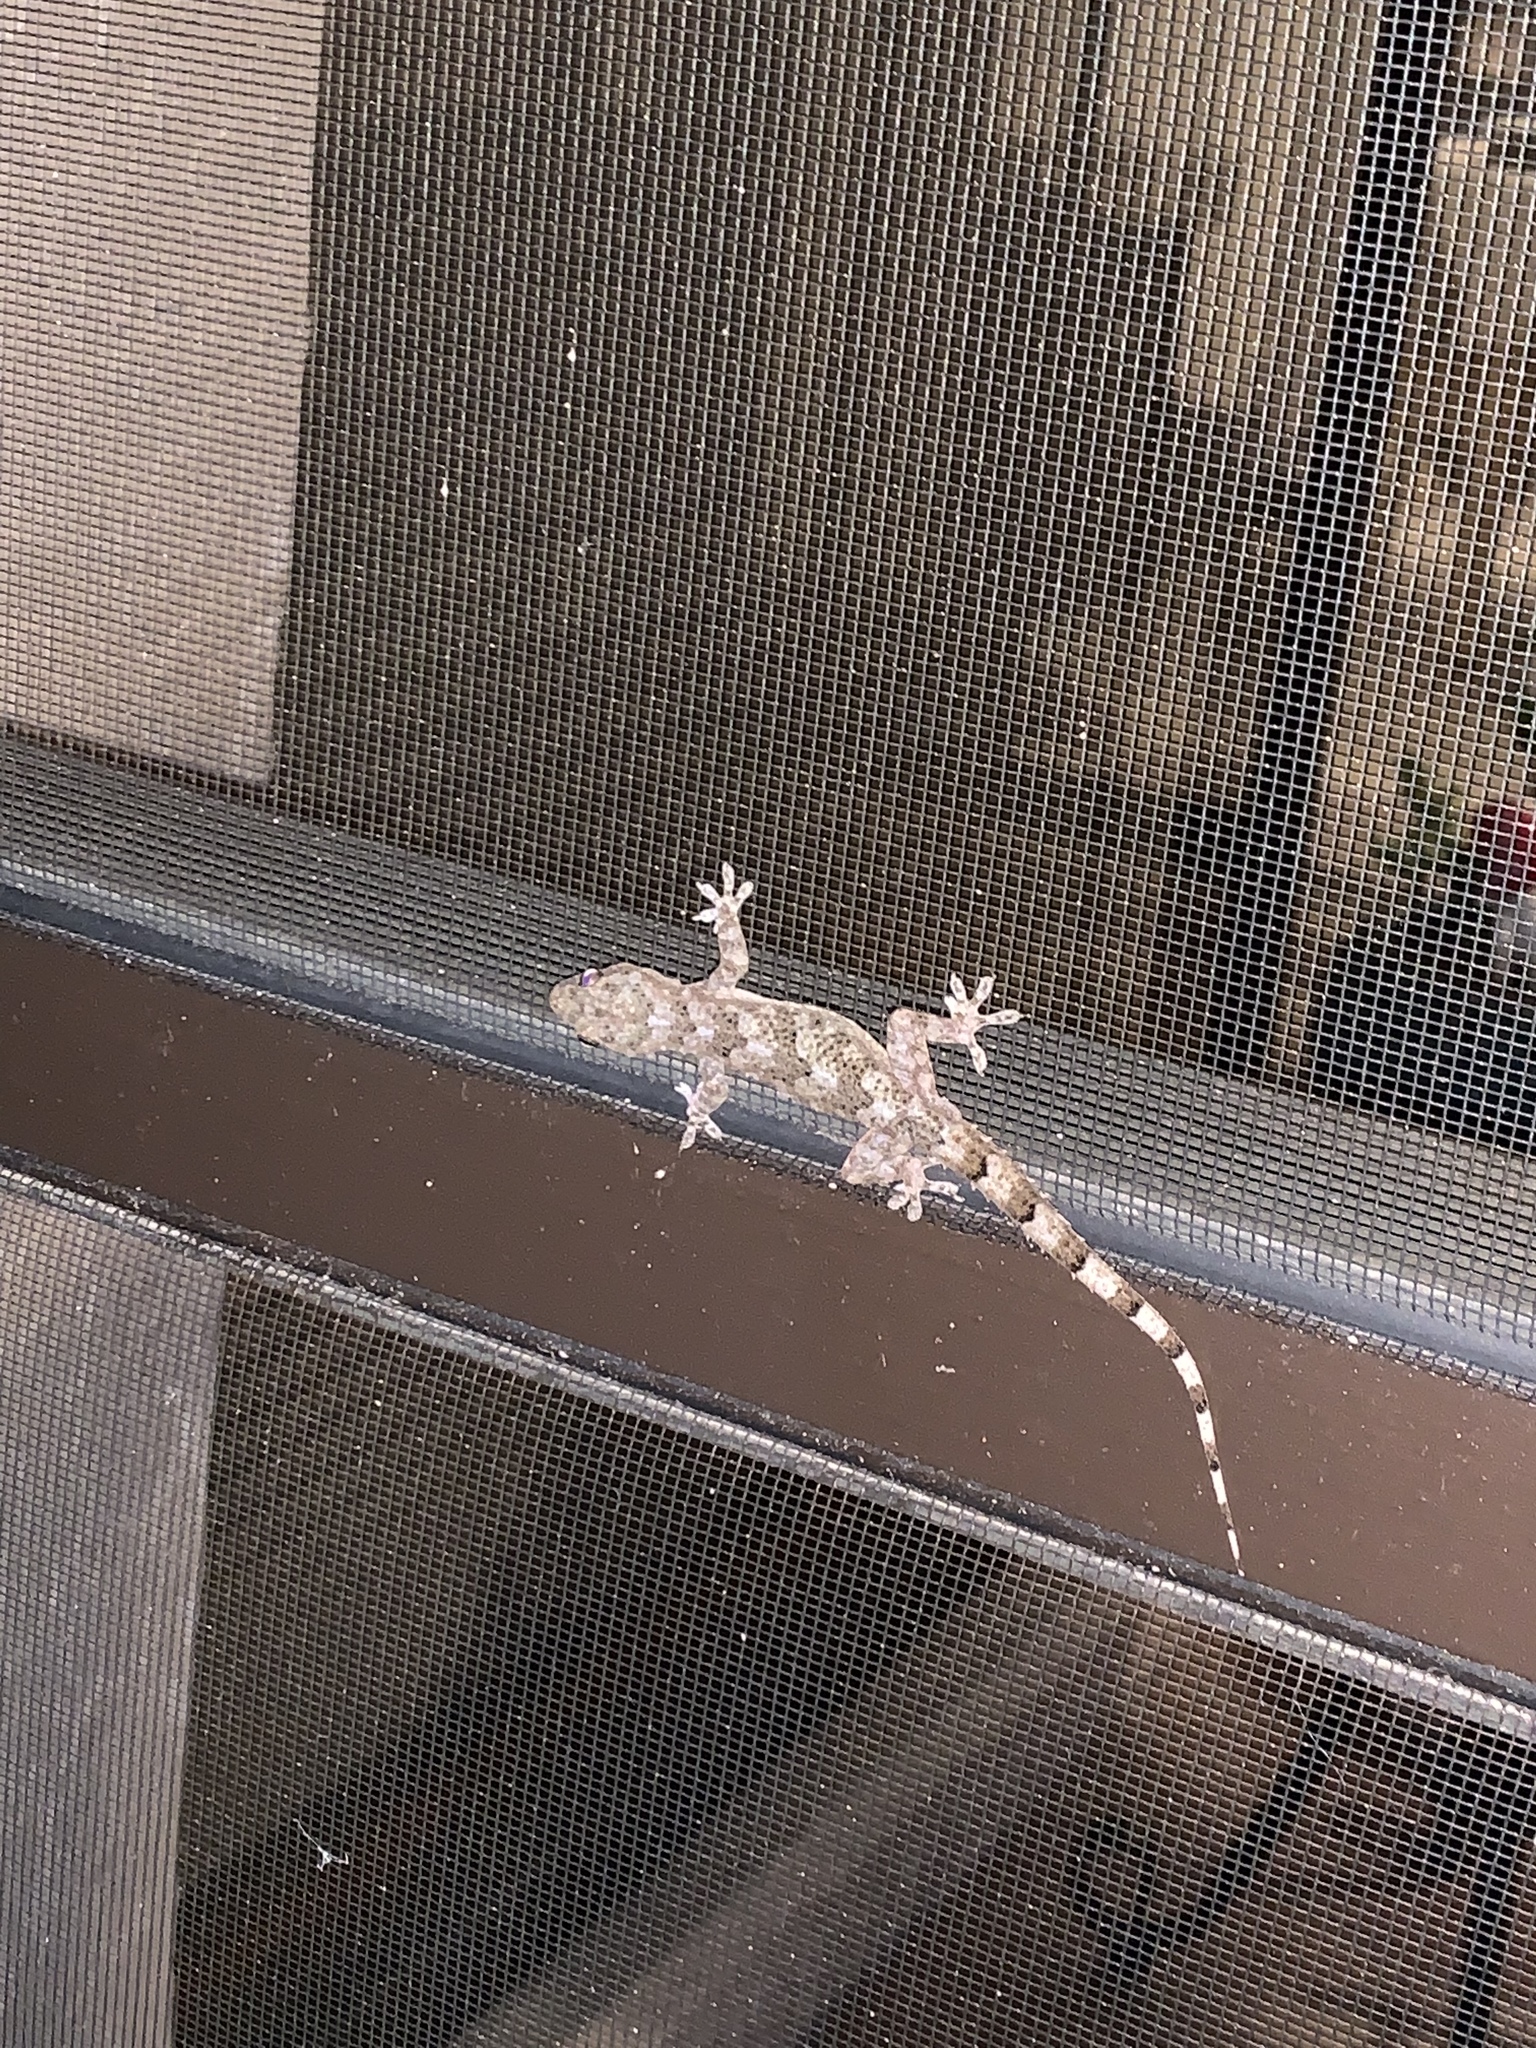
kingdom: Animalia
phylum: Chordata
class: Squamata
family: Gekkonidae
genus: Hemidactylus
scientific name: Hemidactylus mabouia
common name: House gecko
